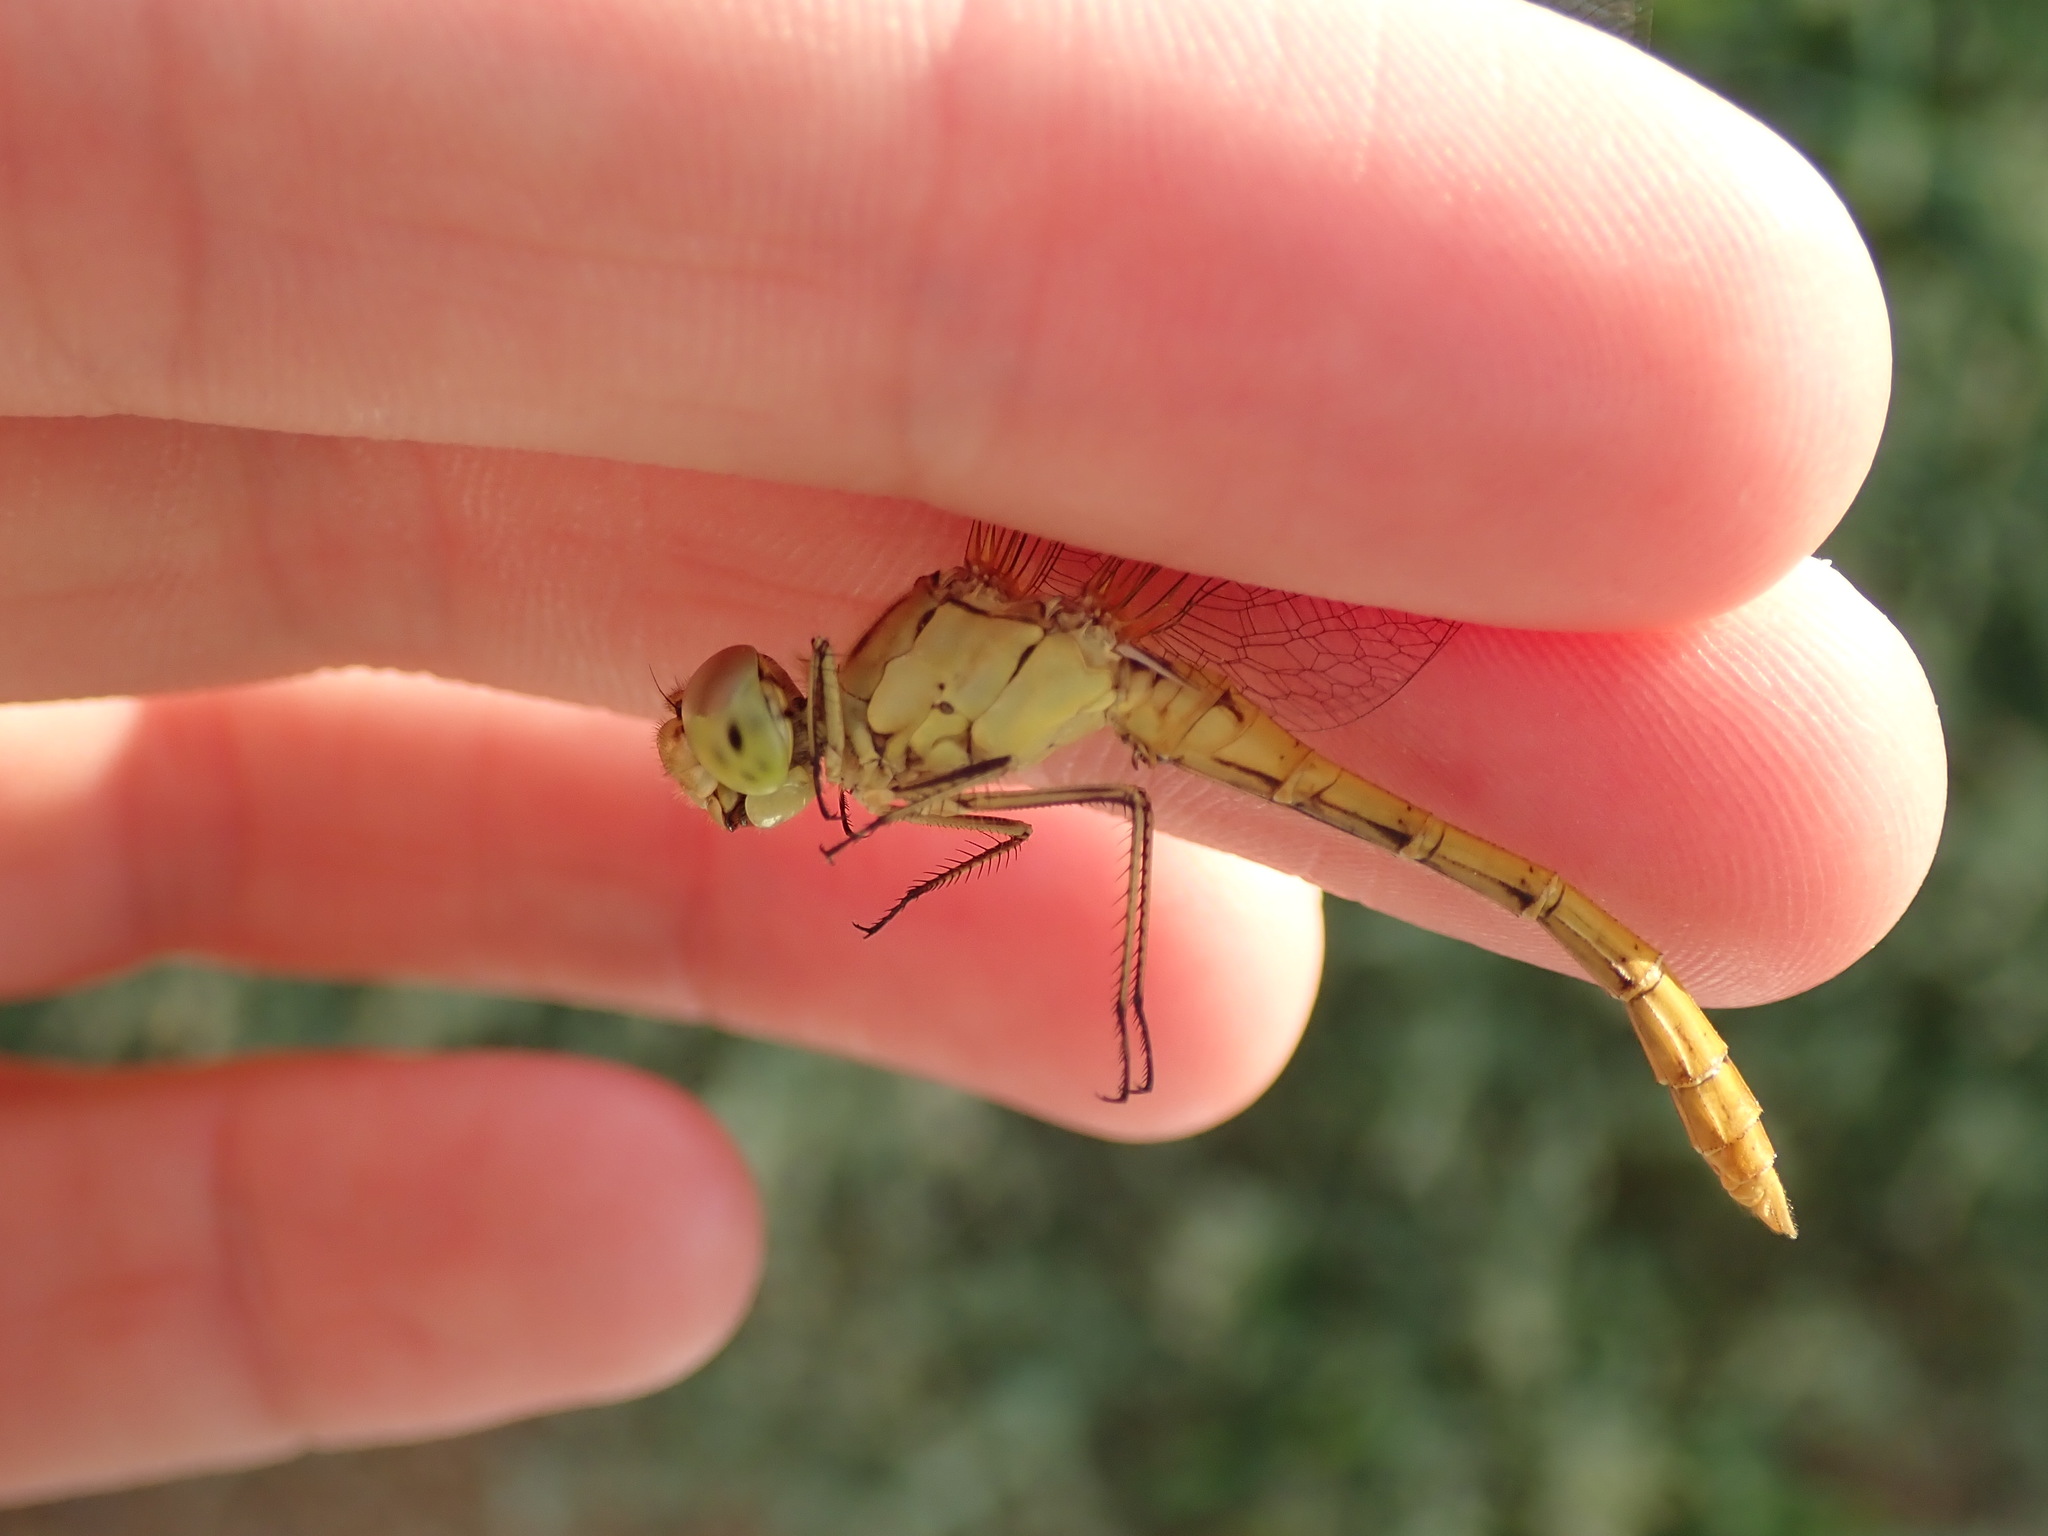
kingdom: Animalia
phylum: Arthropoda
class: Insecta
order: Odonata
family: Libellulidae
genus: Sympetrum
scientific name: Sympetrum meridionale
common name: Southern darter
